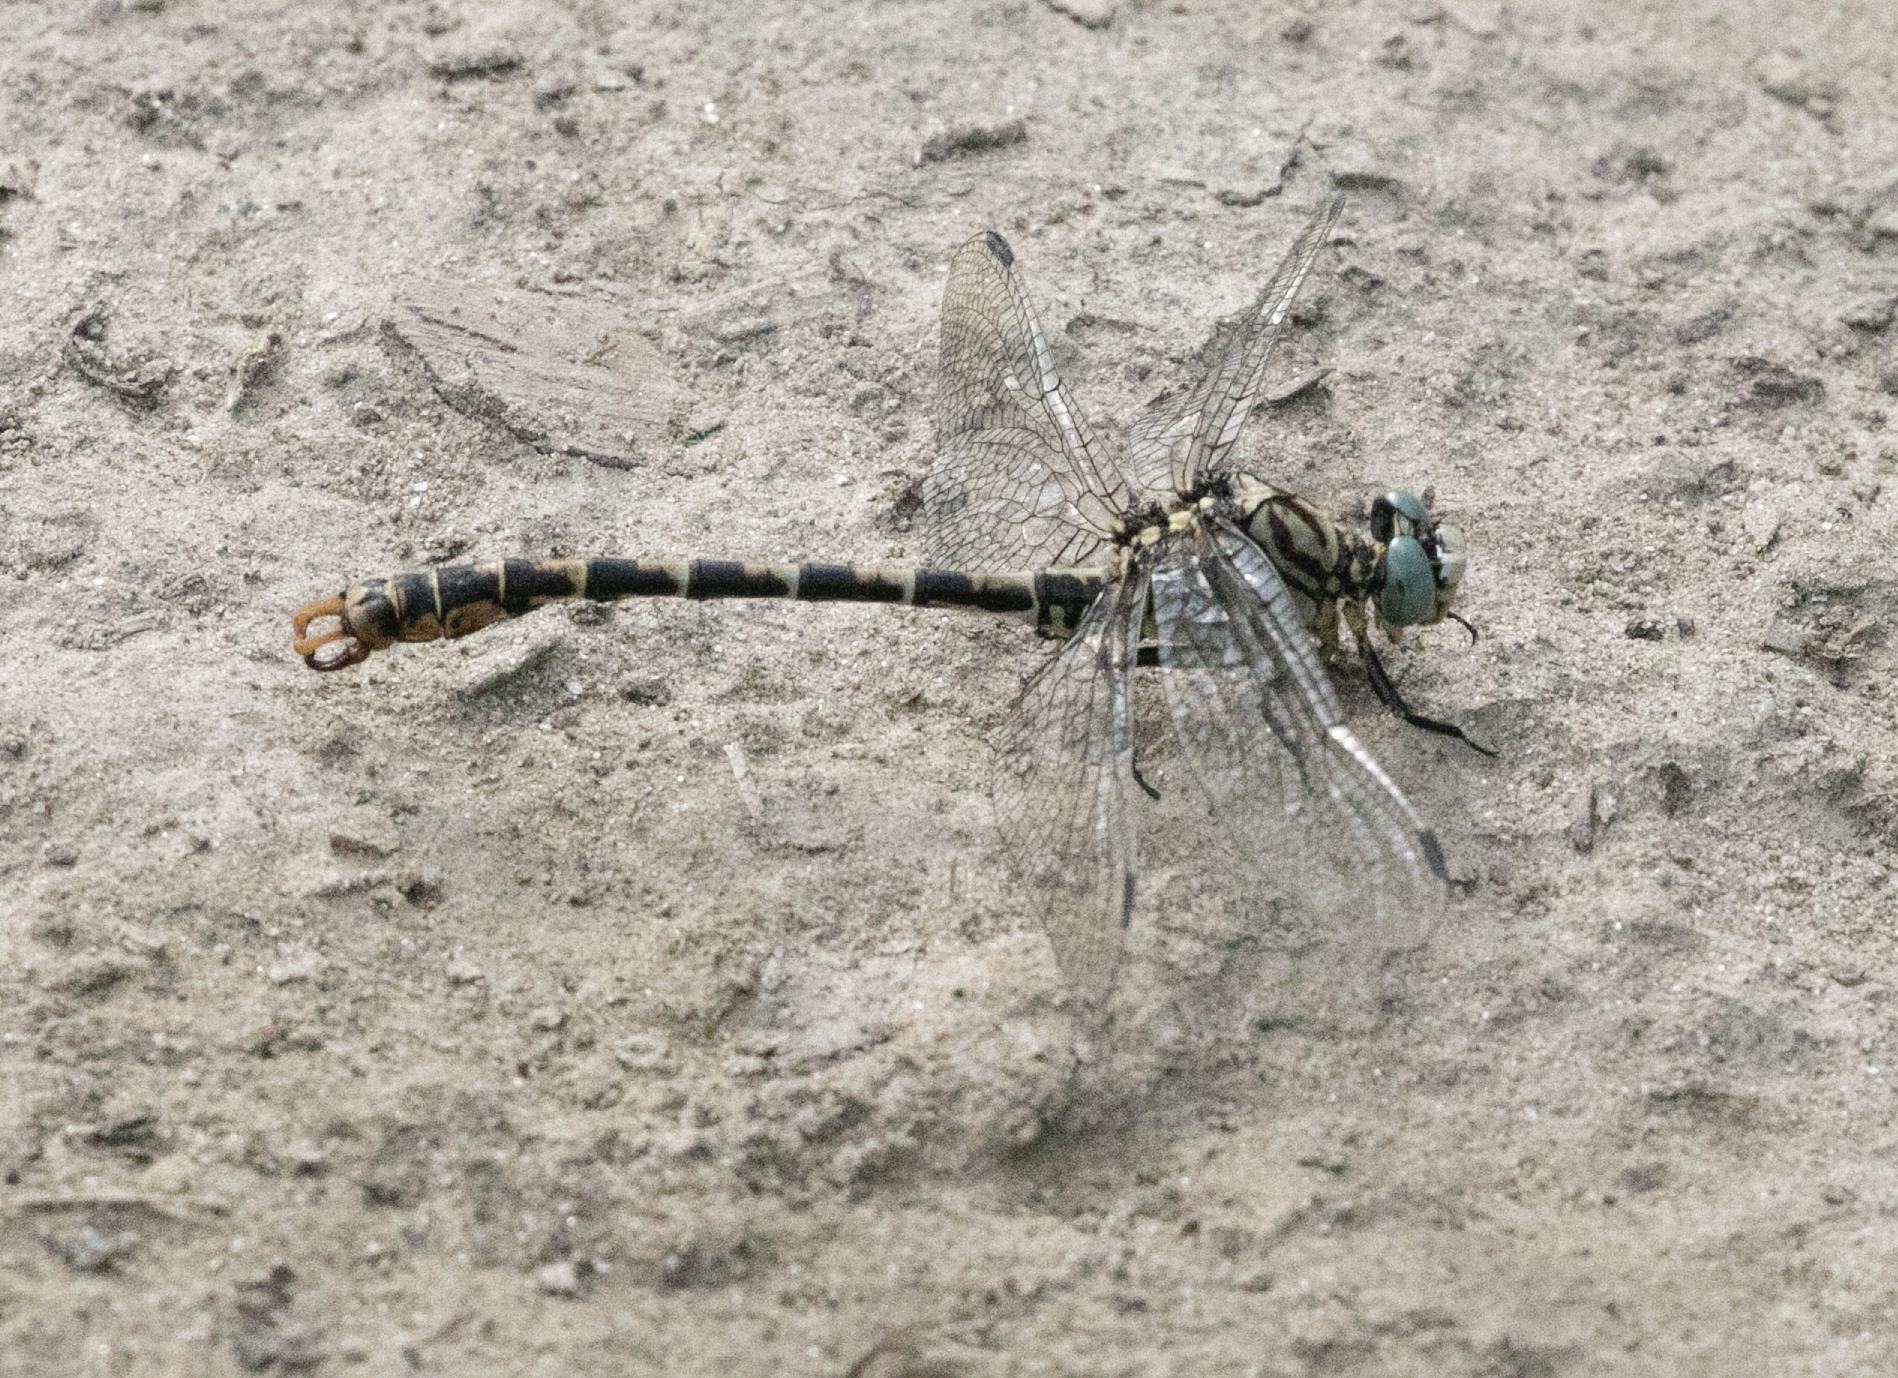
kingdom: Animalia
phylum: Arthropoda
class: Insecta
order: Odonata
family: Gomphidae
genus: Onychogomphus
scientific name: Onychogomphus forcipatus
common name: Small pincertail
